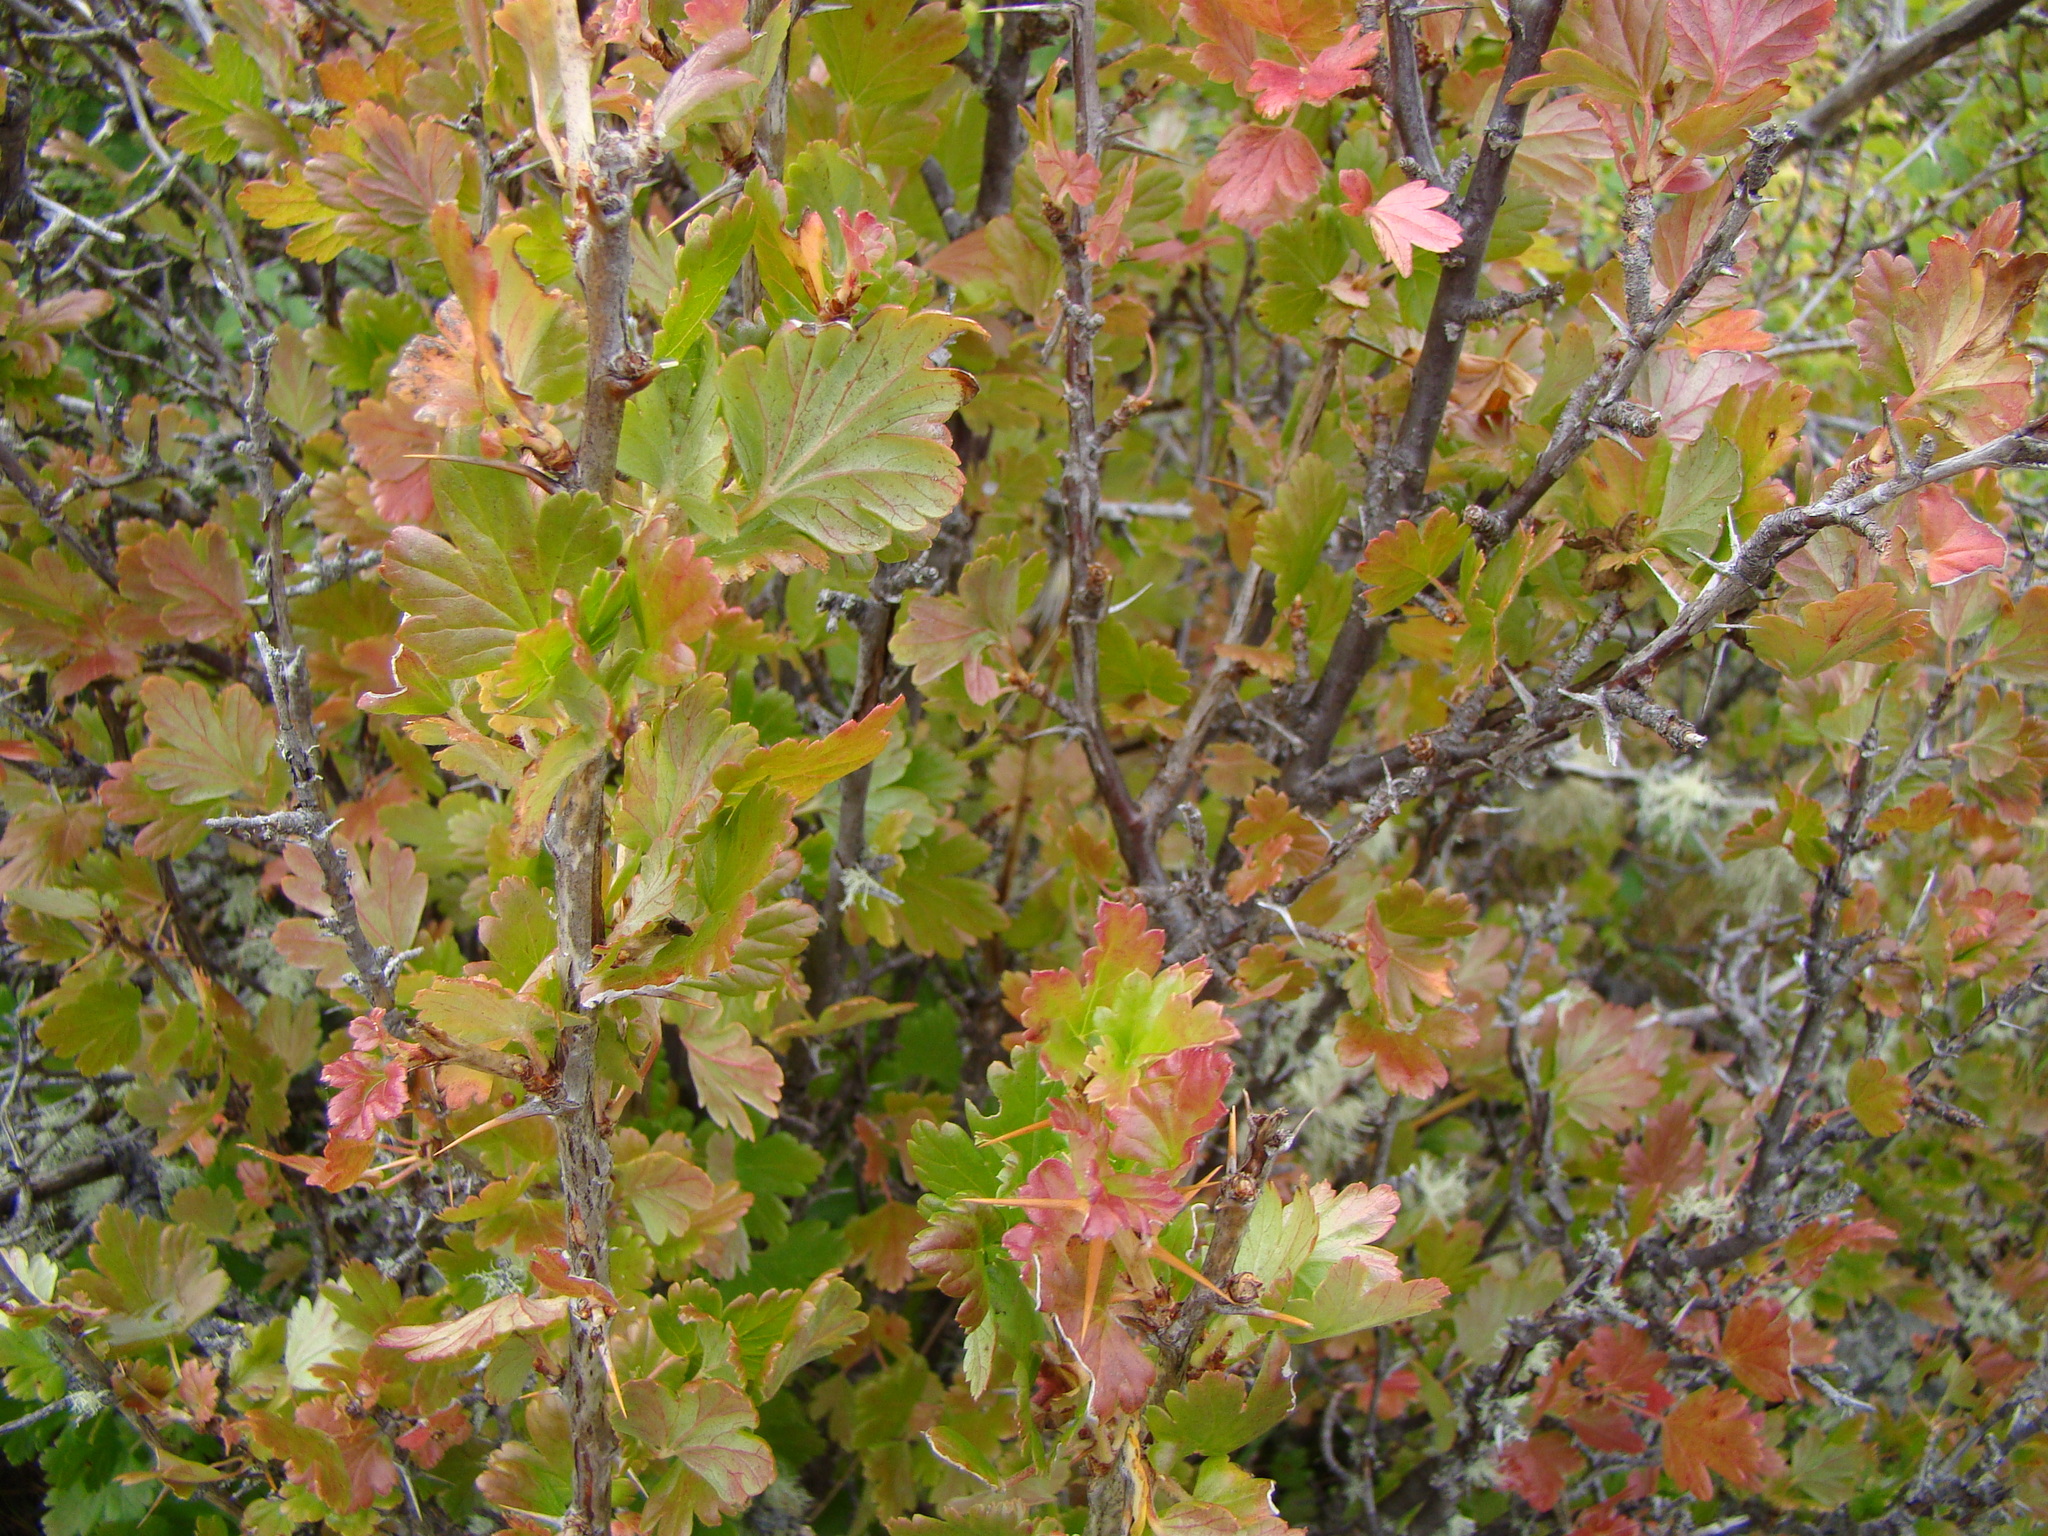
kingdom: Plantae
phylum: Tracheophyta
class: Magnoliopsida
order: Saxifragales
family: Grossulariaceae
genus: Ribes
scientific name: Ribes uva-crispa
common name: Gooseberry
